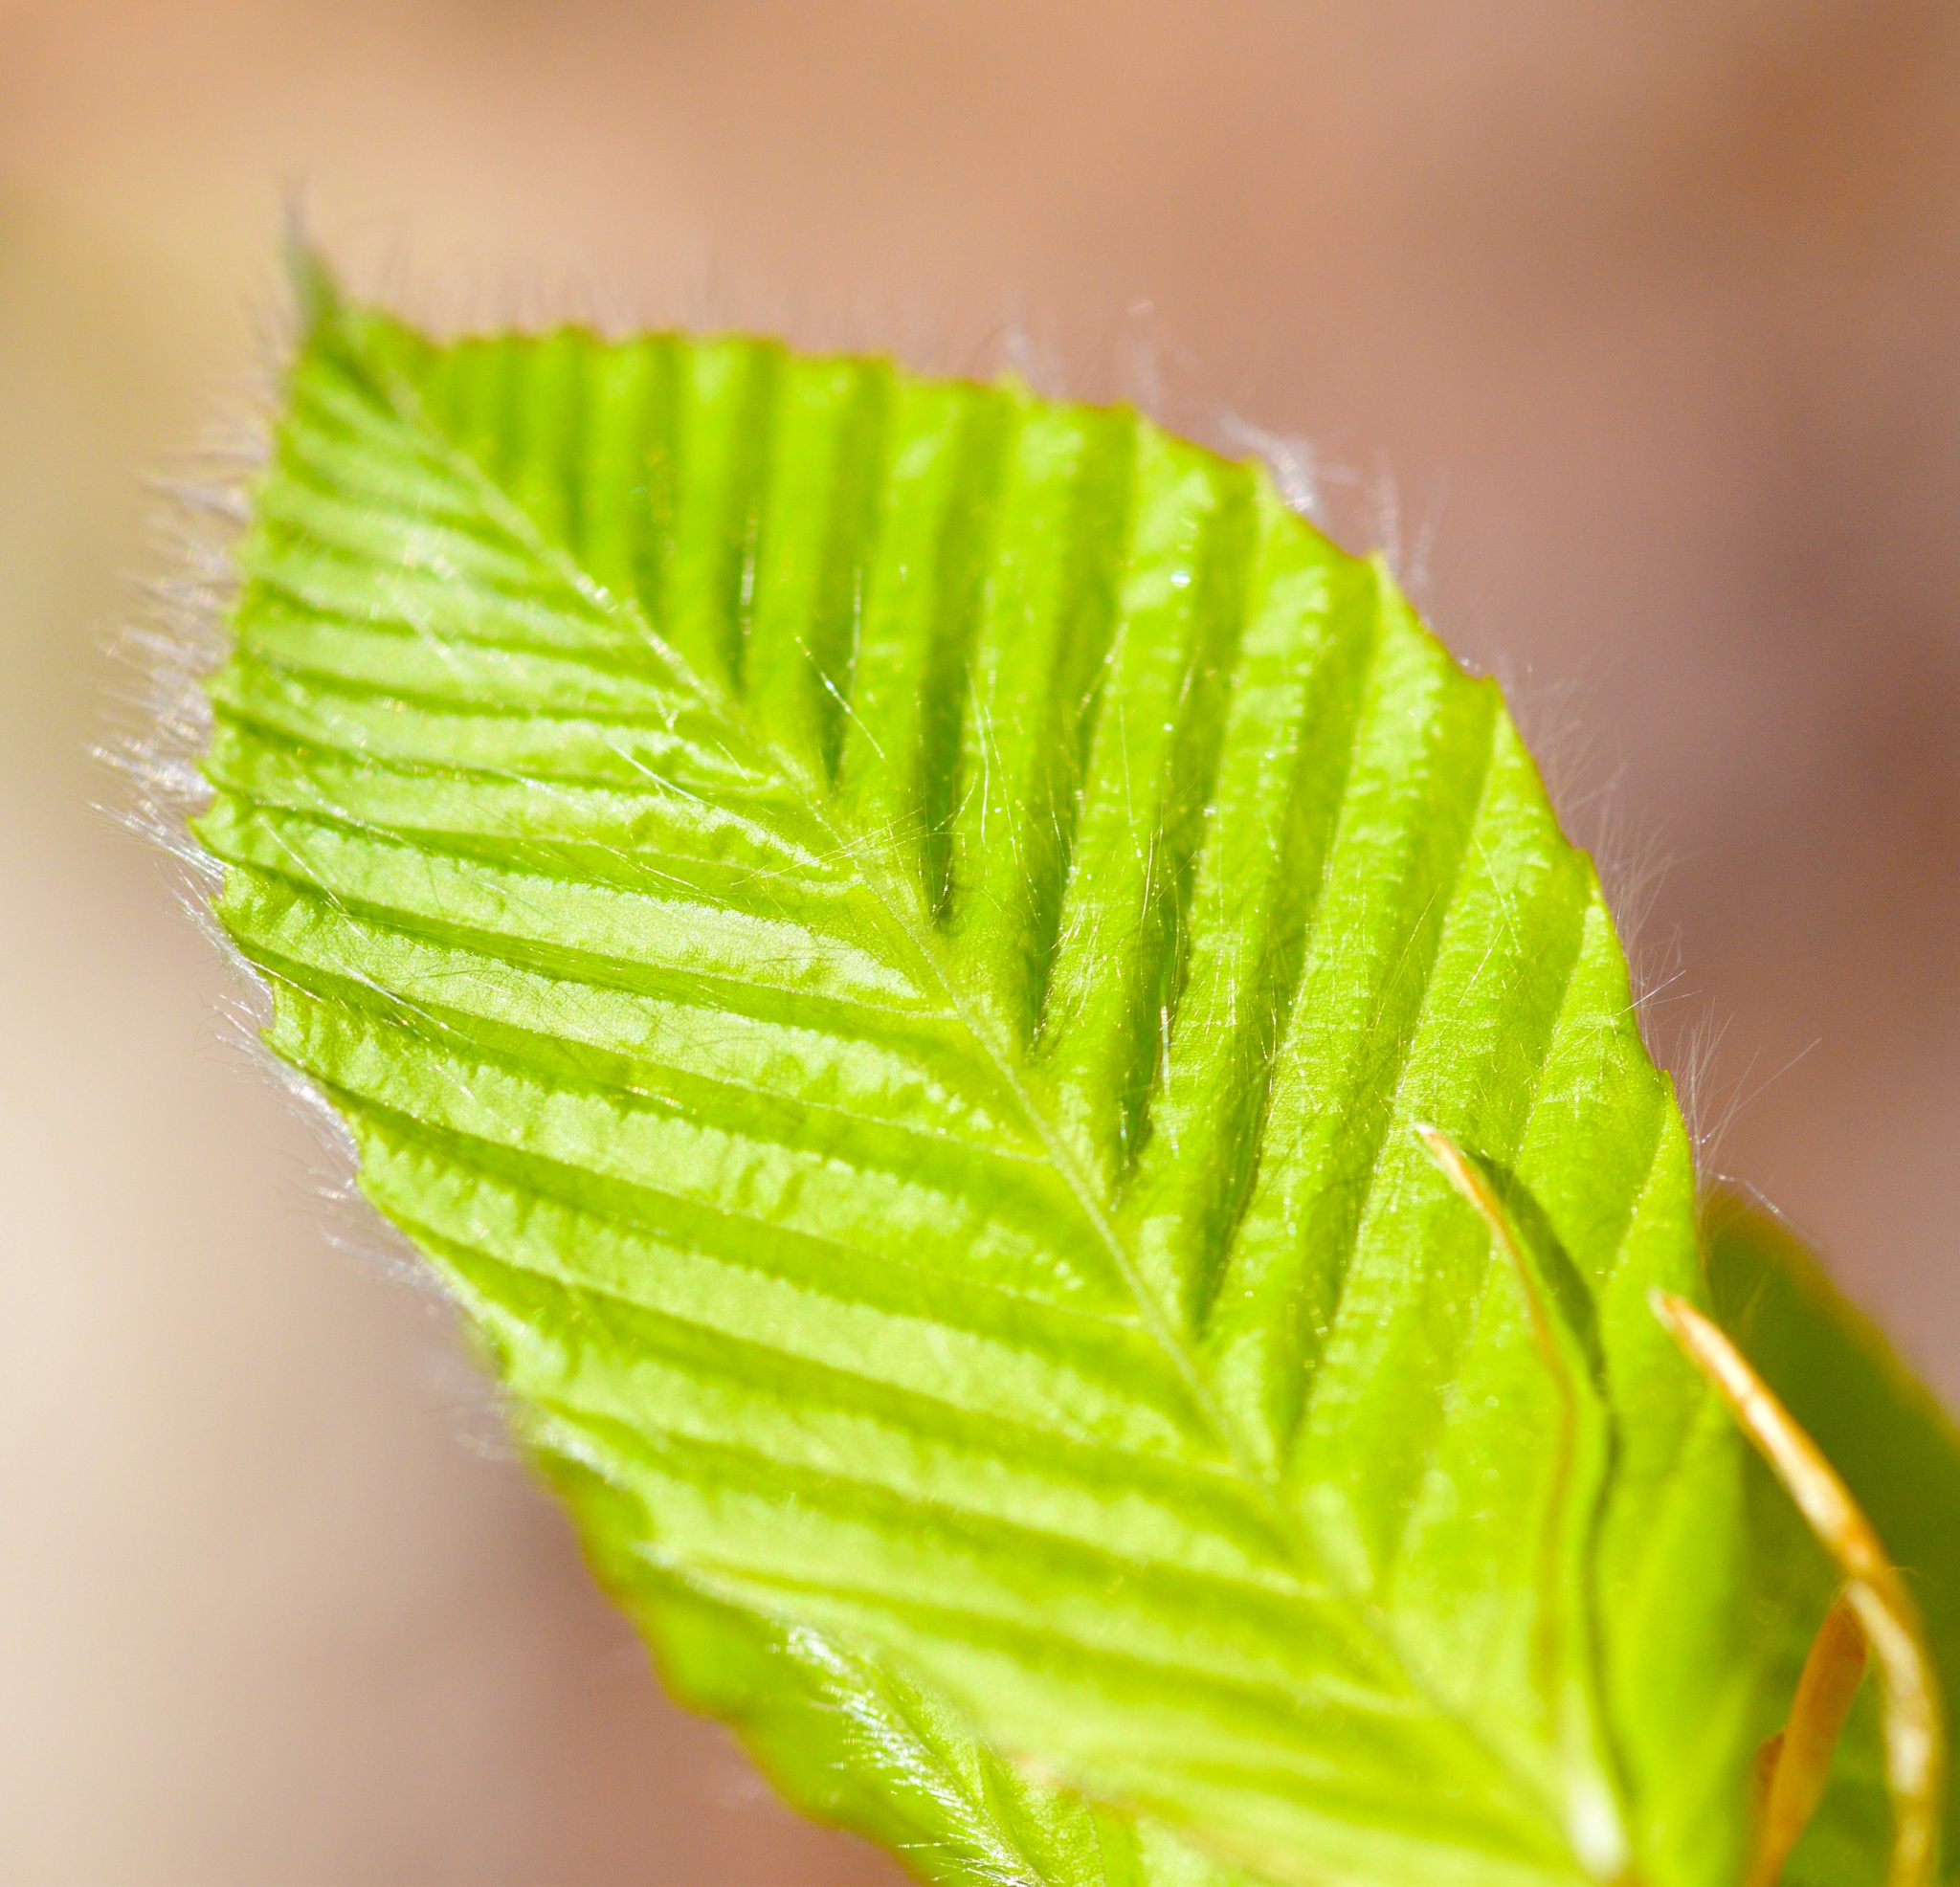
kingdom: Plantae
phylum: Tracheophyta
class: Magnoliopsida
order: Fagales
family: Fagaceae
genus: Fagus
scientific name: Fagus grandifolia
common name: American beech
